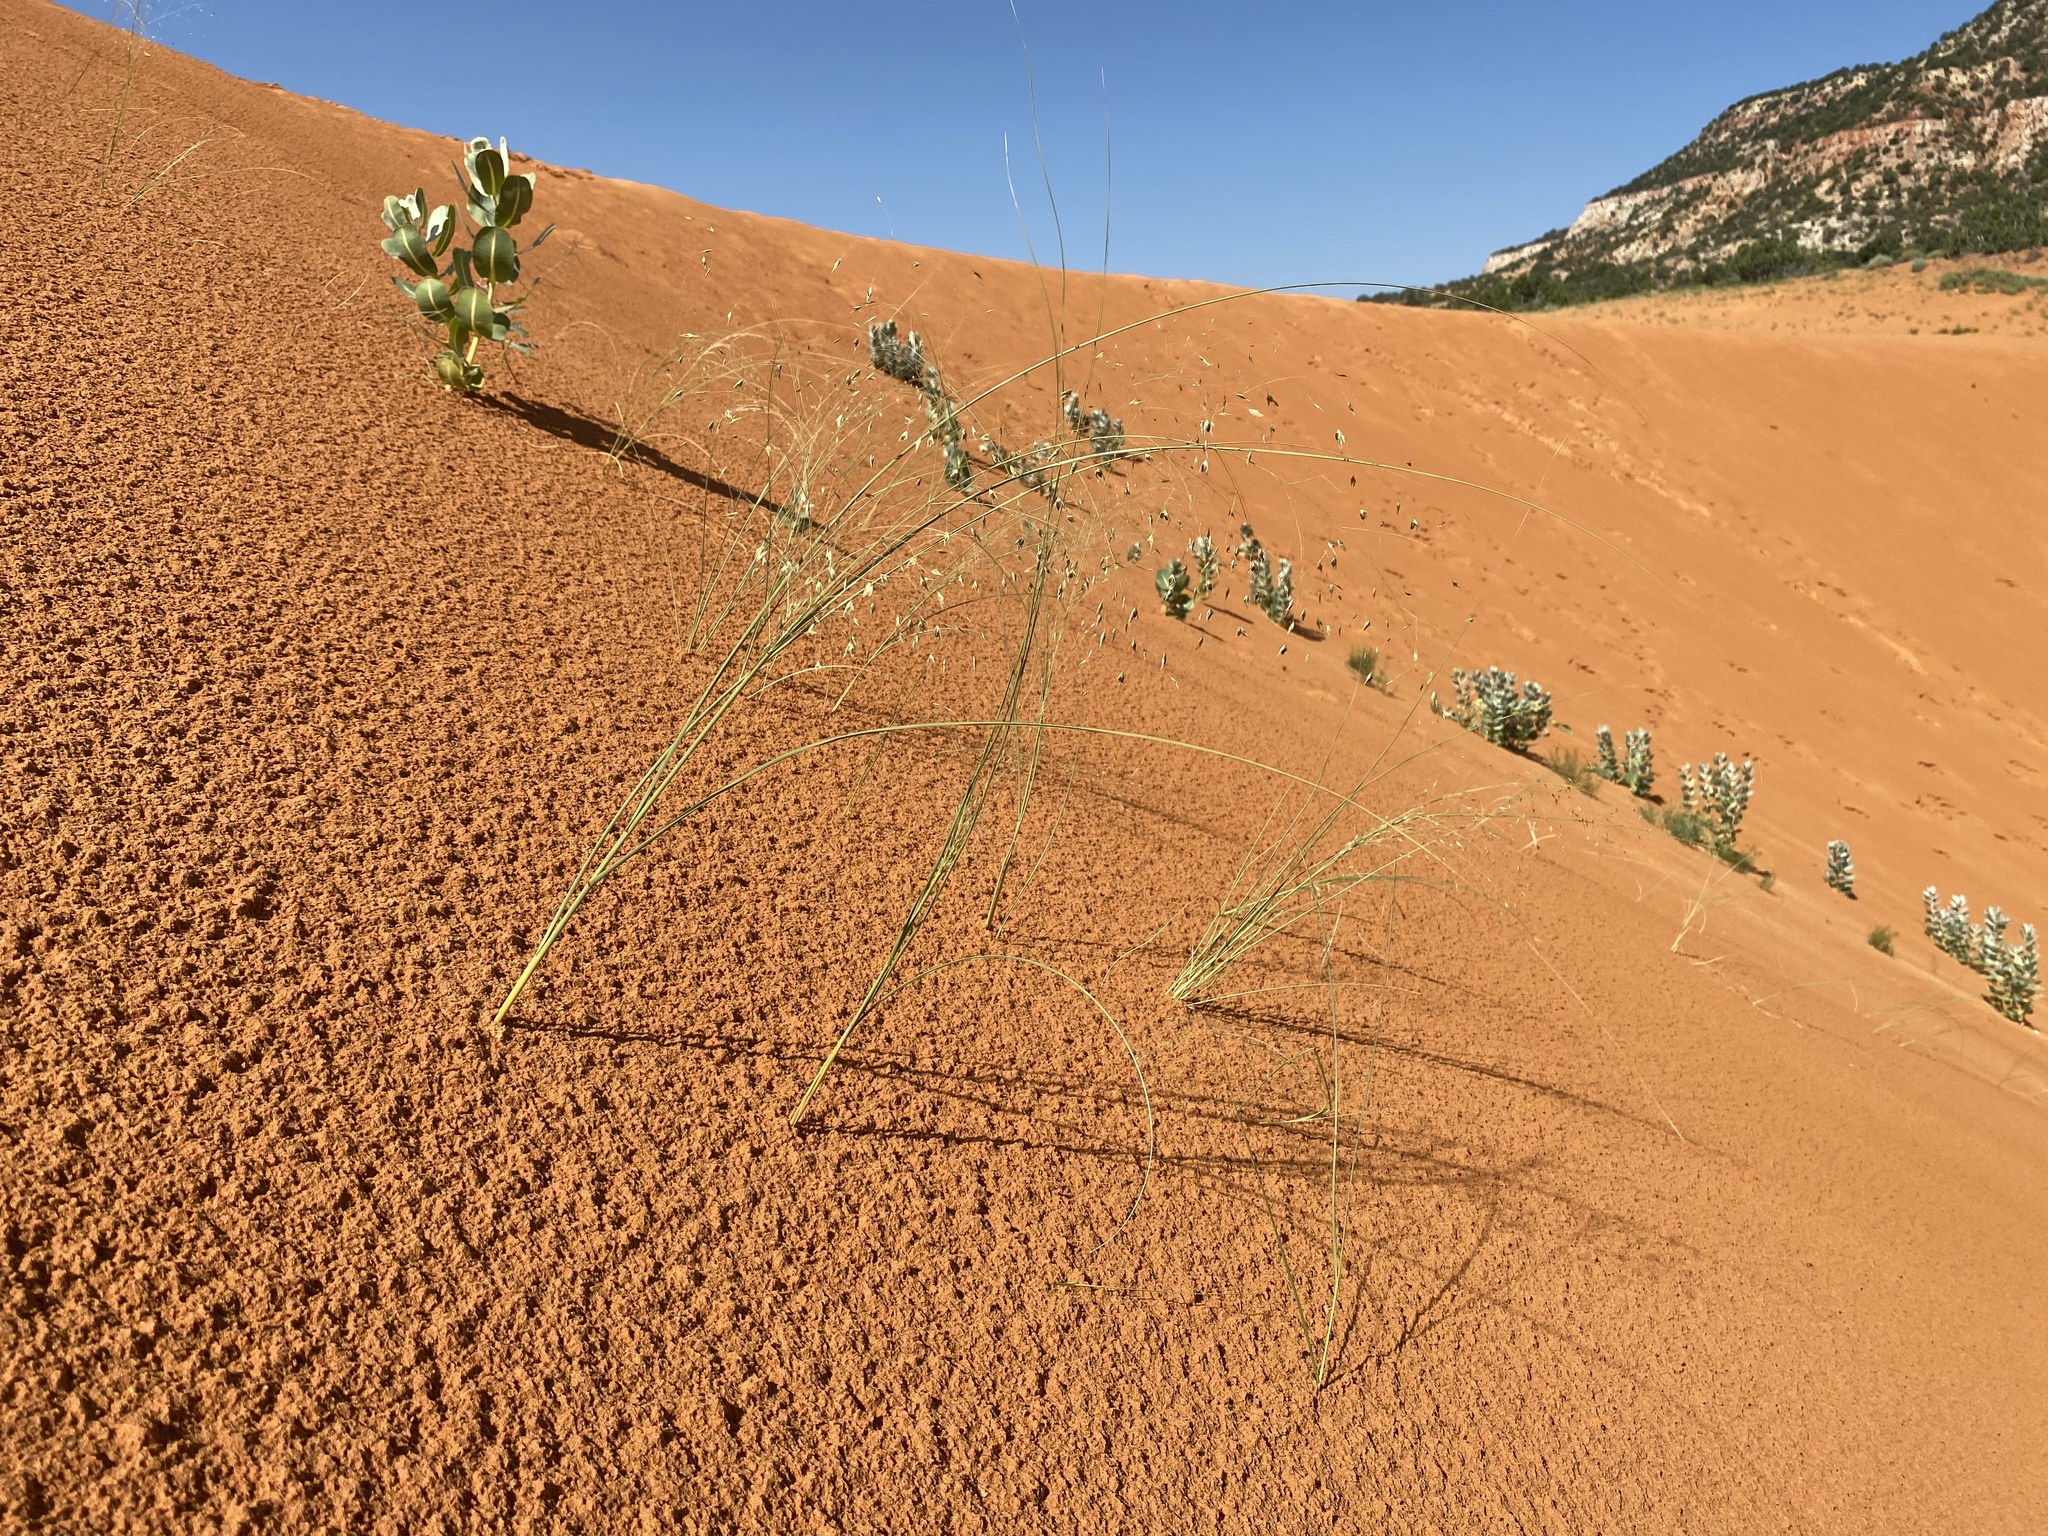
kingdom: Plantae
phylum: Tracheophyta
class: Liliopsida
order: Poales
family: Poaceae
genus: Muhlenbergia
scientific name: Muhlenbergia multiflora
